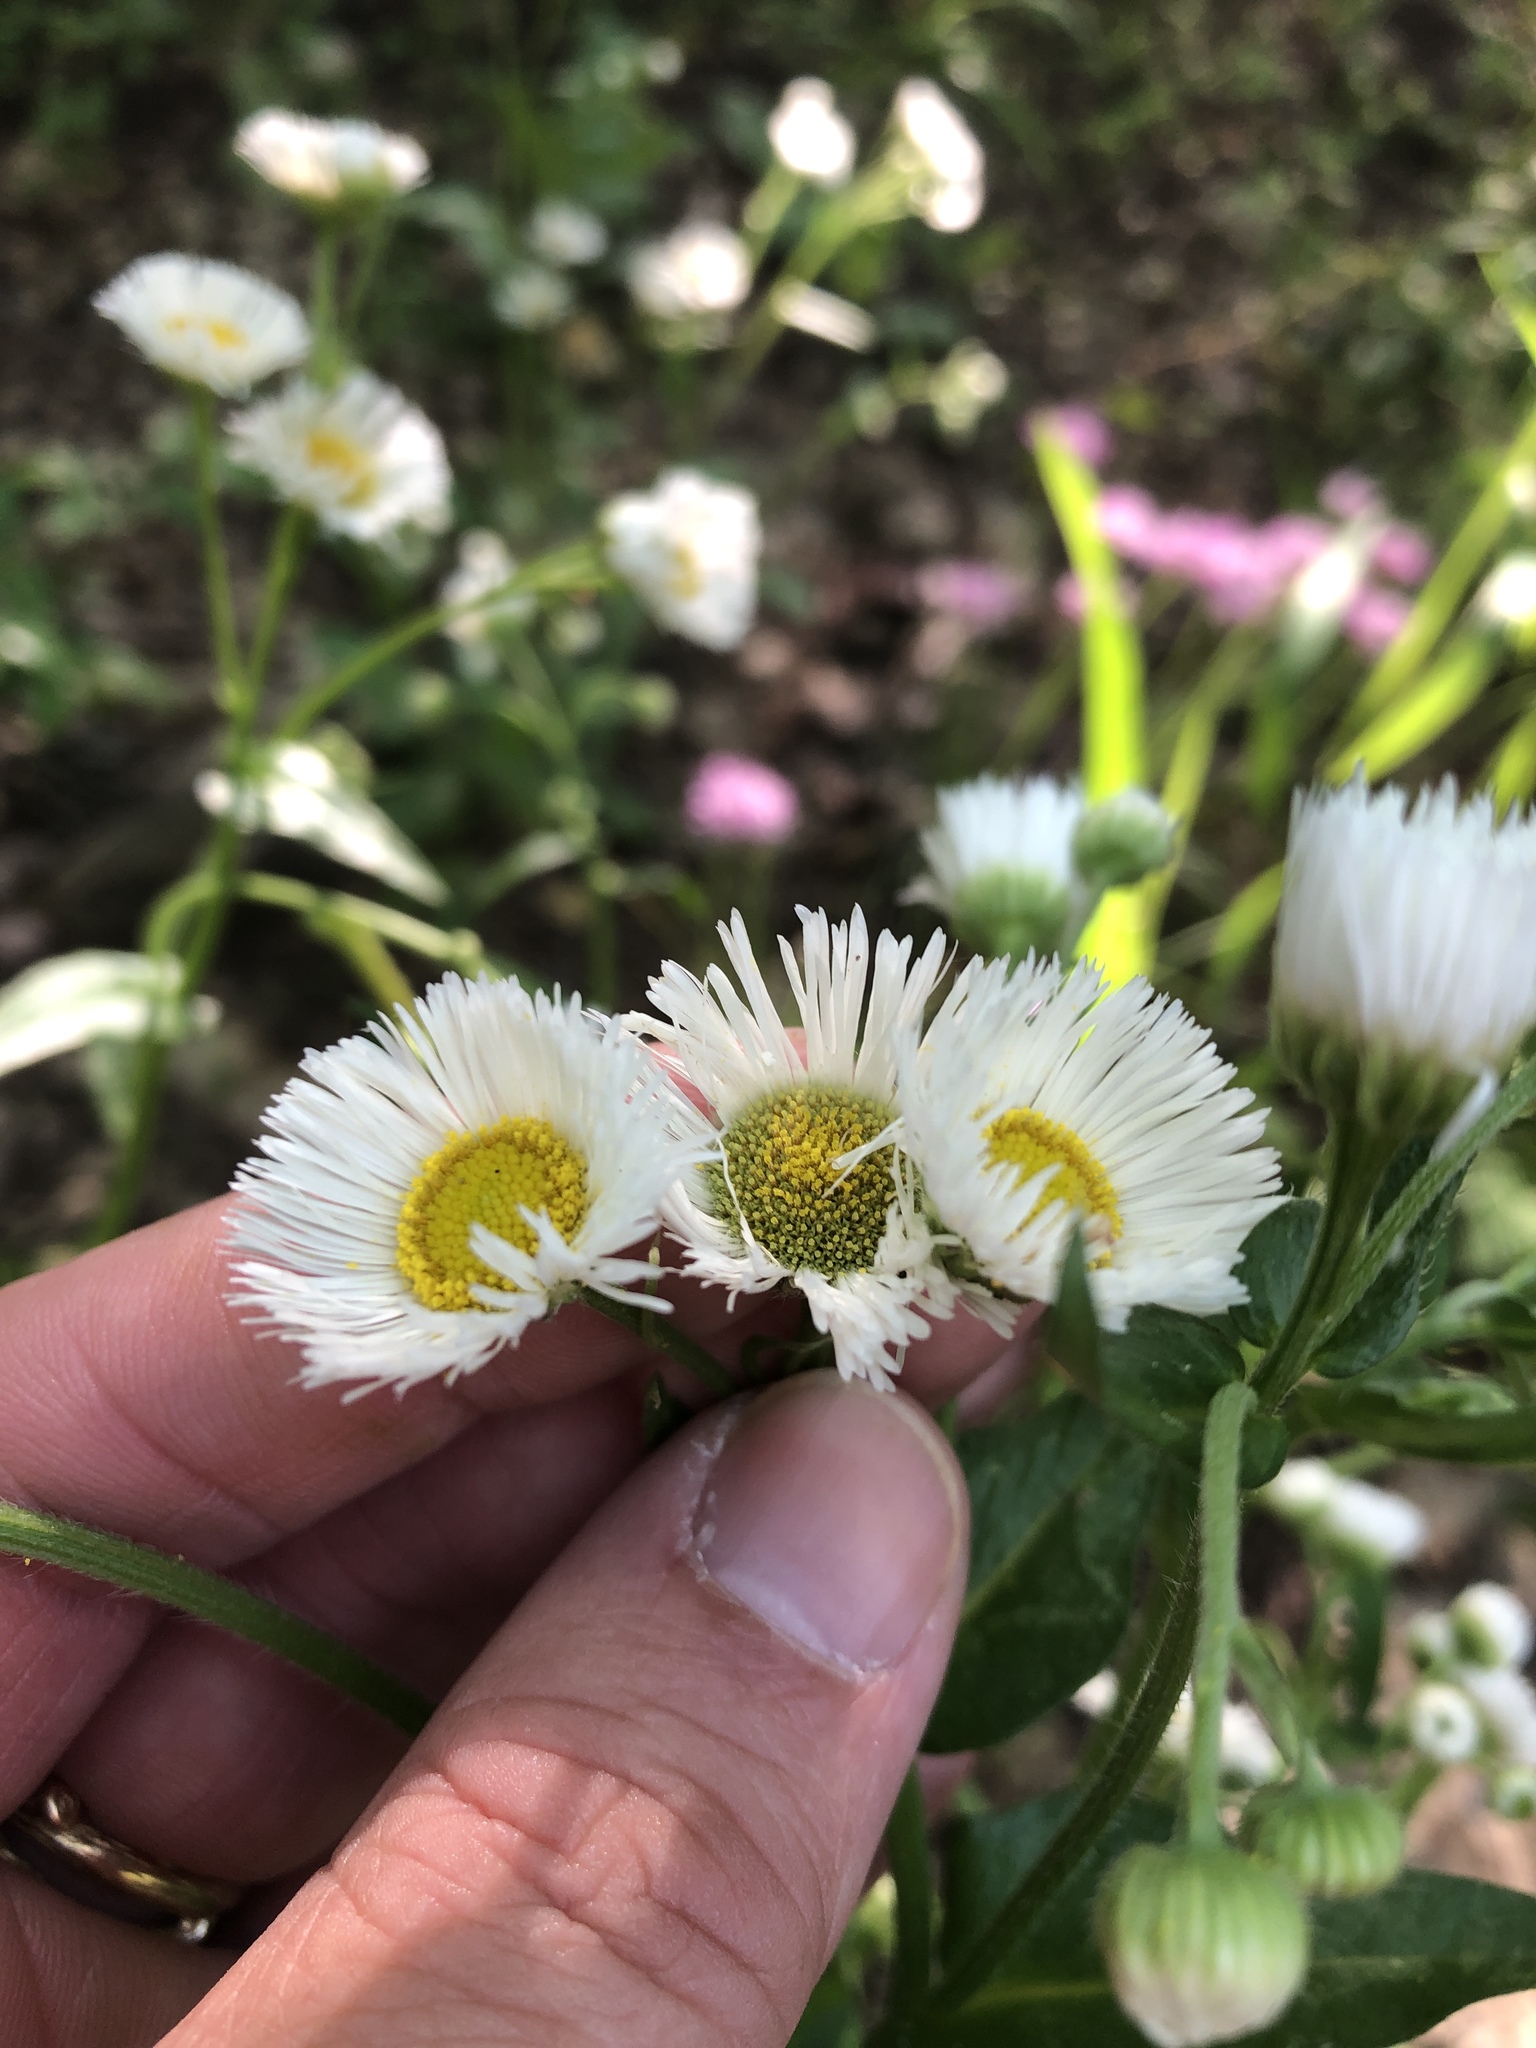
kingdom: Plantae
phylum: Tracheophyta
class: Magnoliopsida
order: Asterales
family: Asteraceae
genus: Erigeron
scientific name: Erigeron philadelphicus
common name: Robin's-plantain
